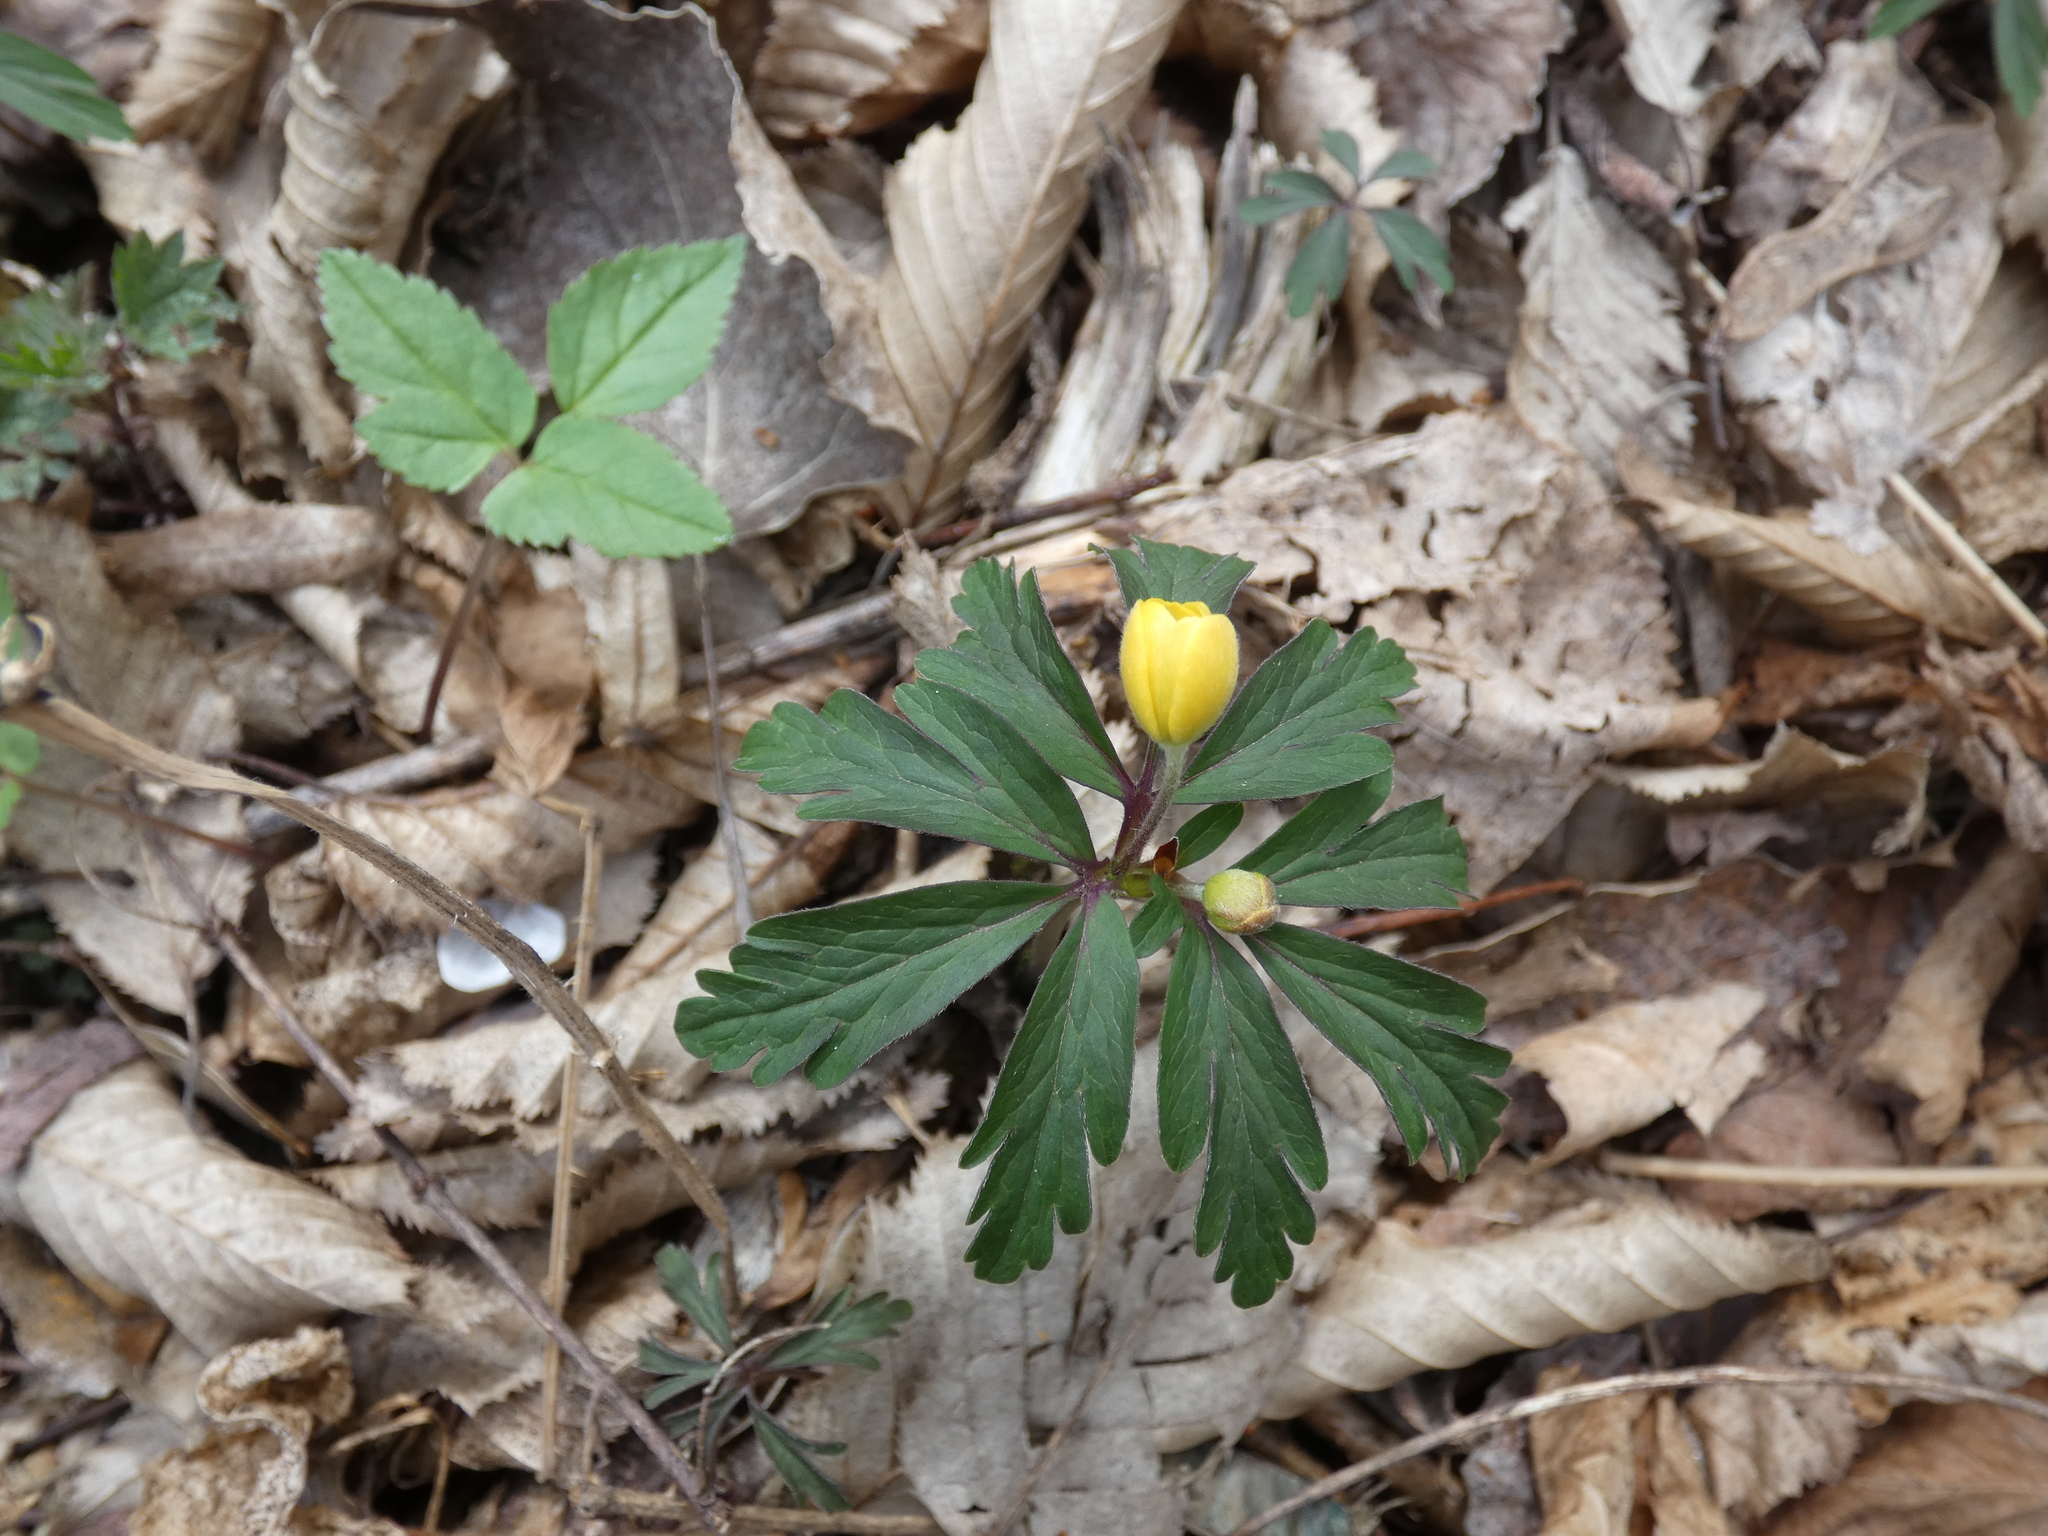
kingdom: Plantae
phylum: Tracheophyta
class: Magnoliopsida
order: Ranunculales
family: Ranunculaceae
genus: Anemone
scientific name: Anemone ranunculoides
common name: Yellow anemone
